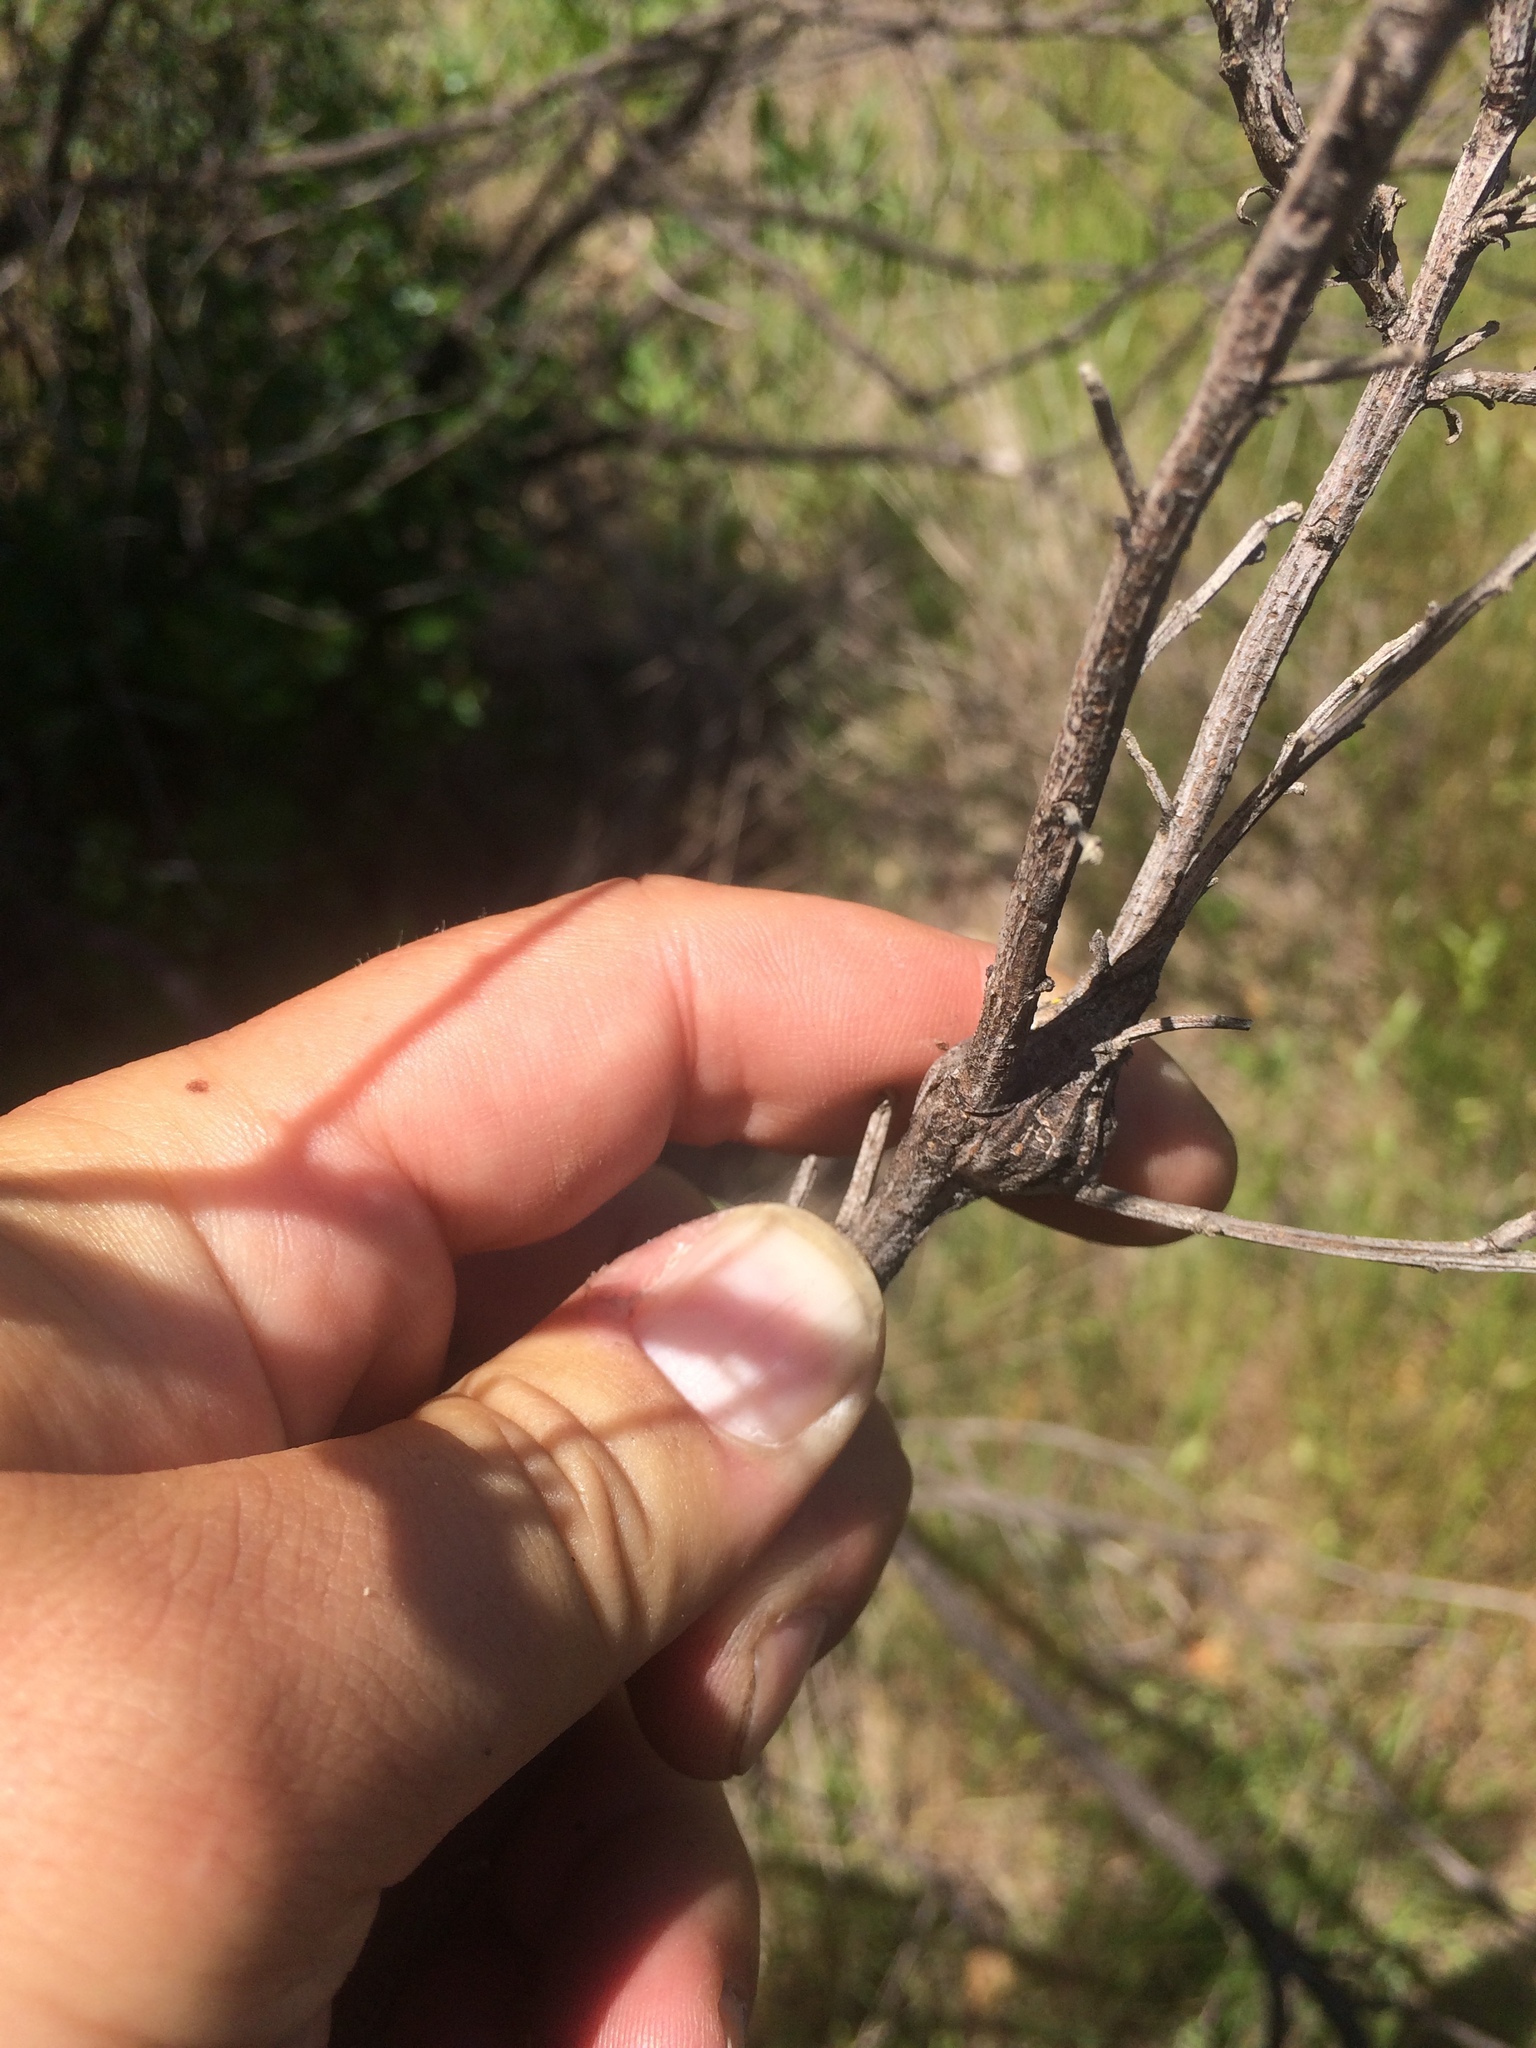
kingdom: Animalia
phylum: Arthropoda
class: Insecta
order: Lepidoptera
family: Gelechiidae
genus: Gnorimoschema
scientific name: Gnorimoschema baccharisella
